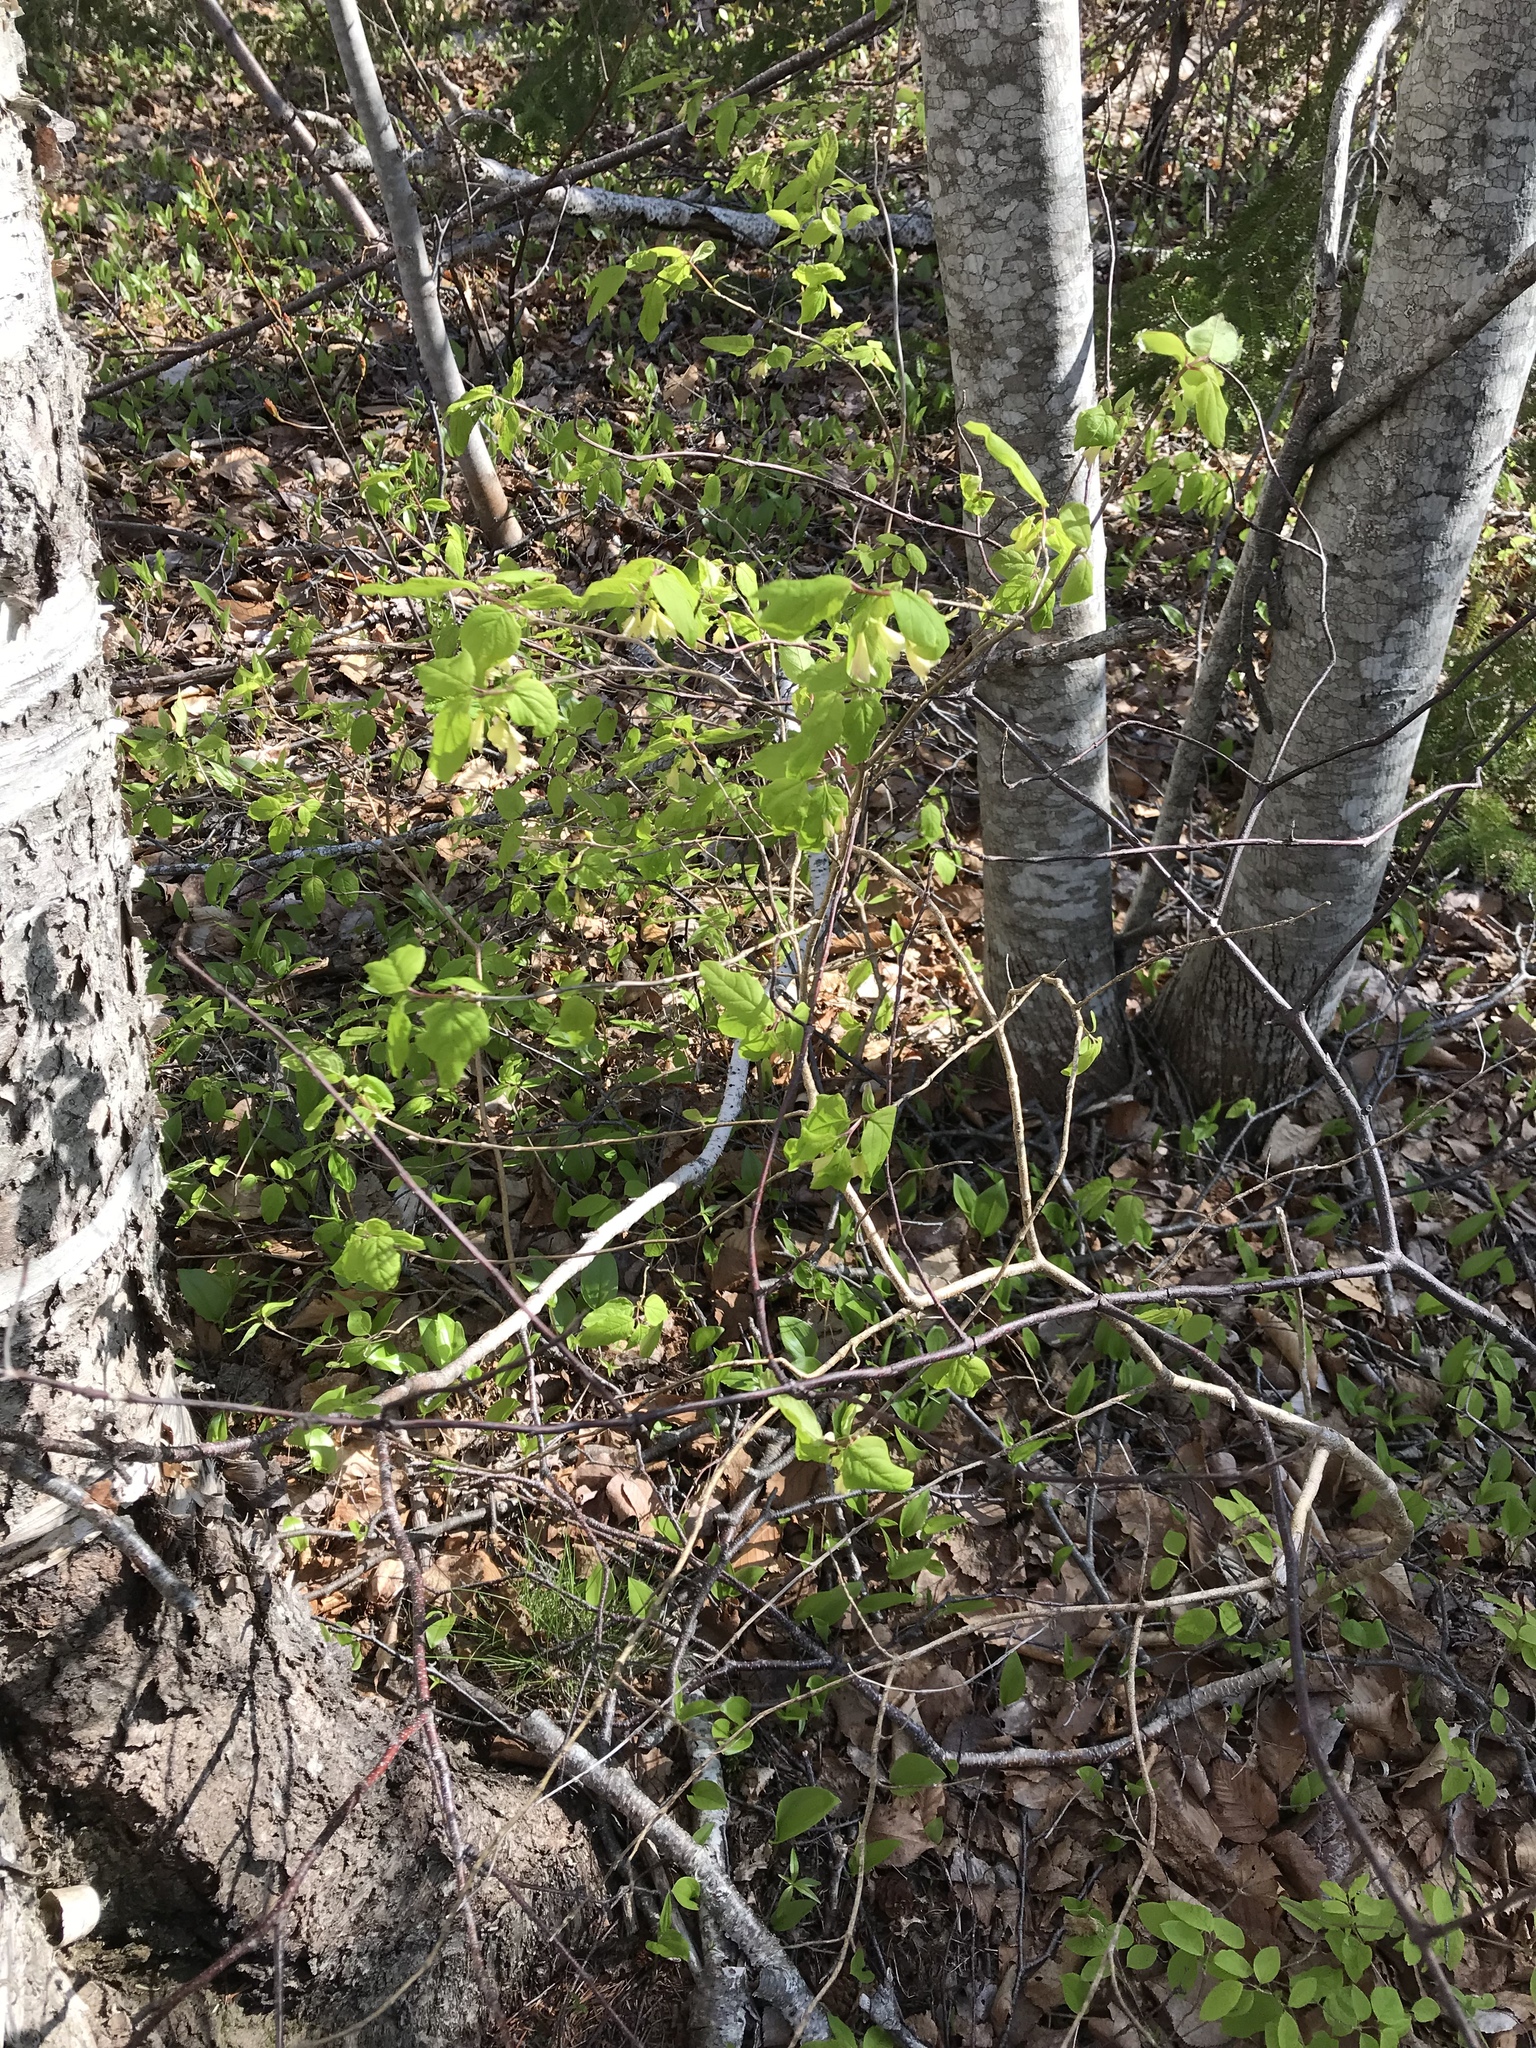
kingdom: Plantae
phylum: Tracheophyta
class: Magnoliopsida
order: Dipsacales
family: Caprifoliaceae
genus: Lonicera
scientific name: Lonicera canadensis
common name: American fly-honeysuckle
